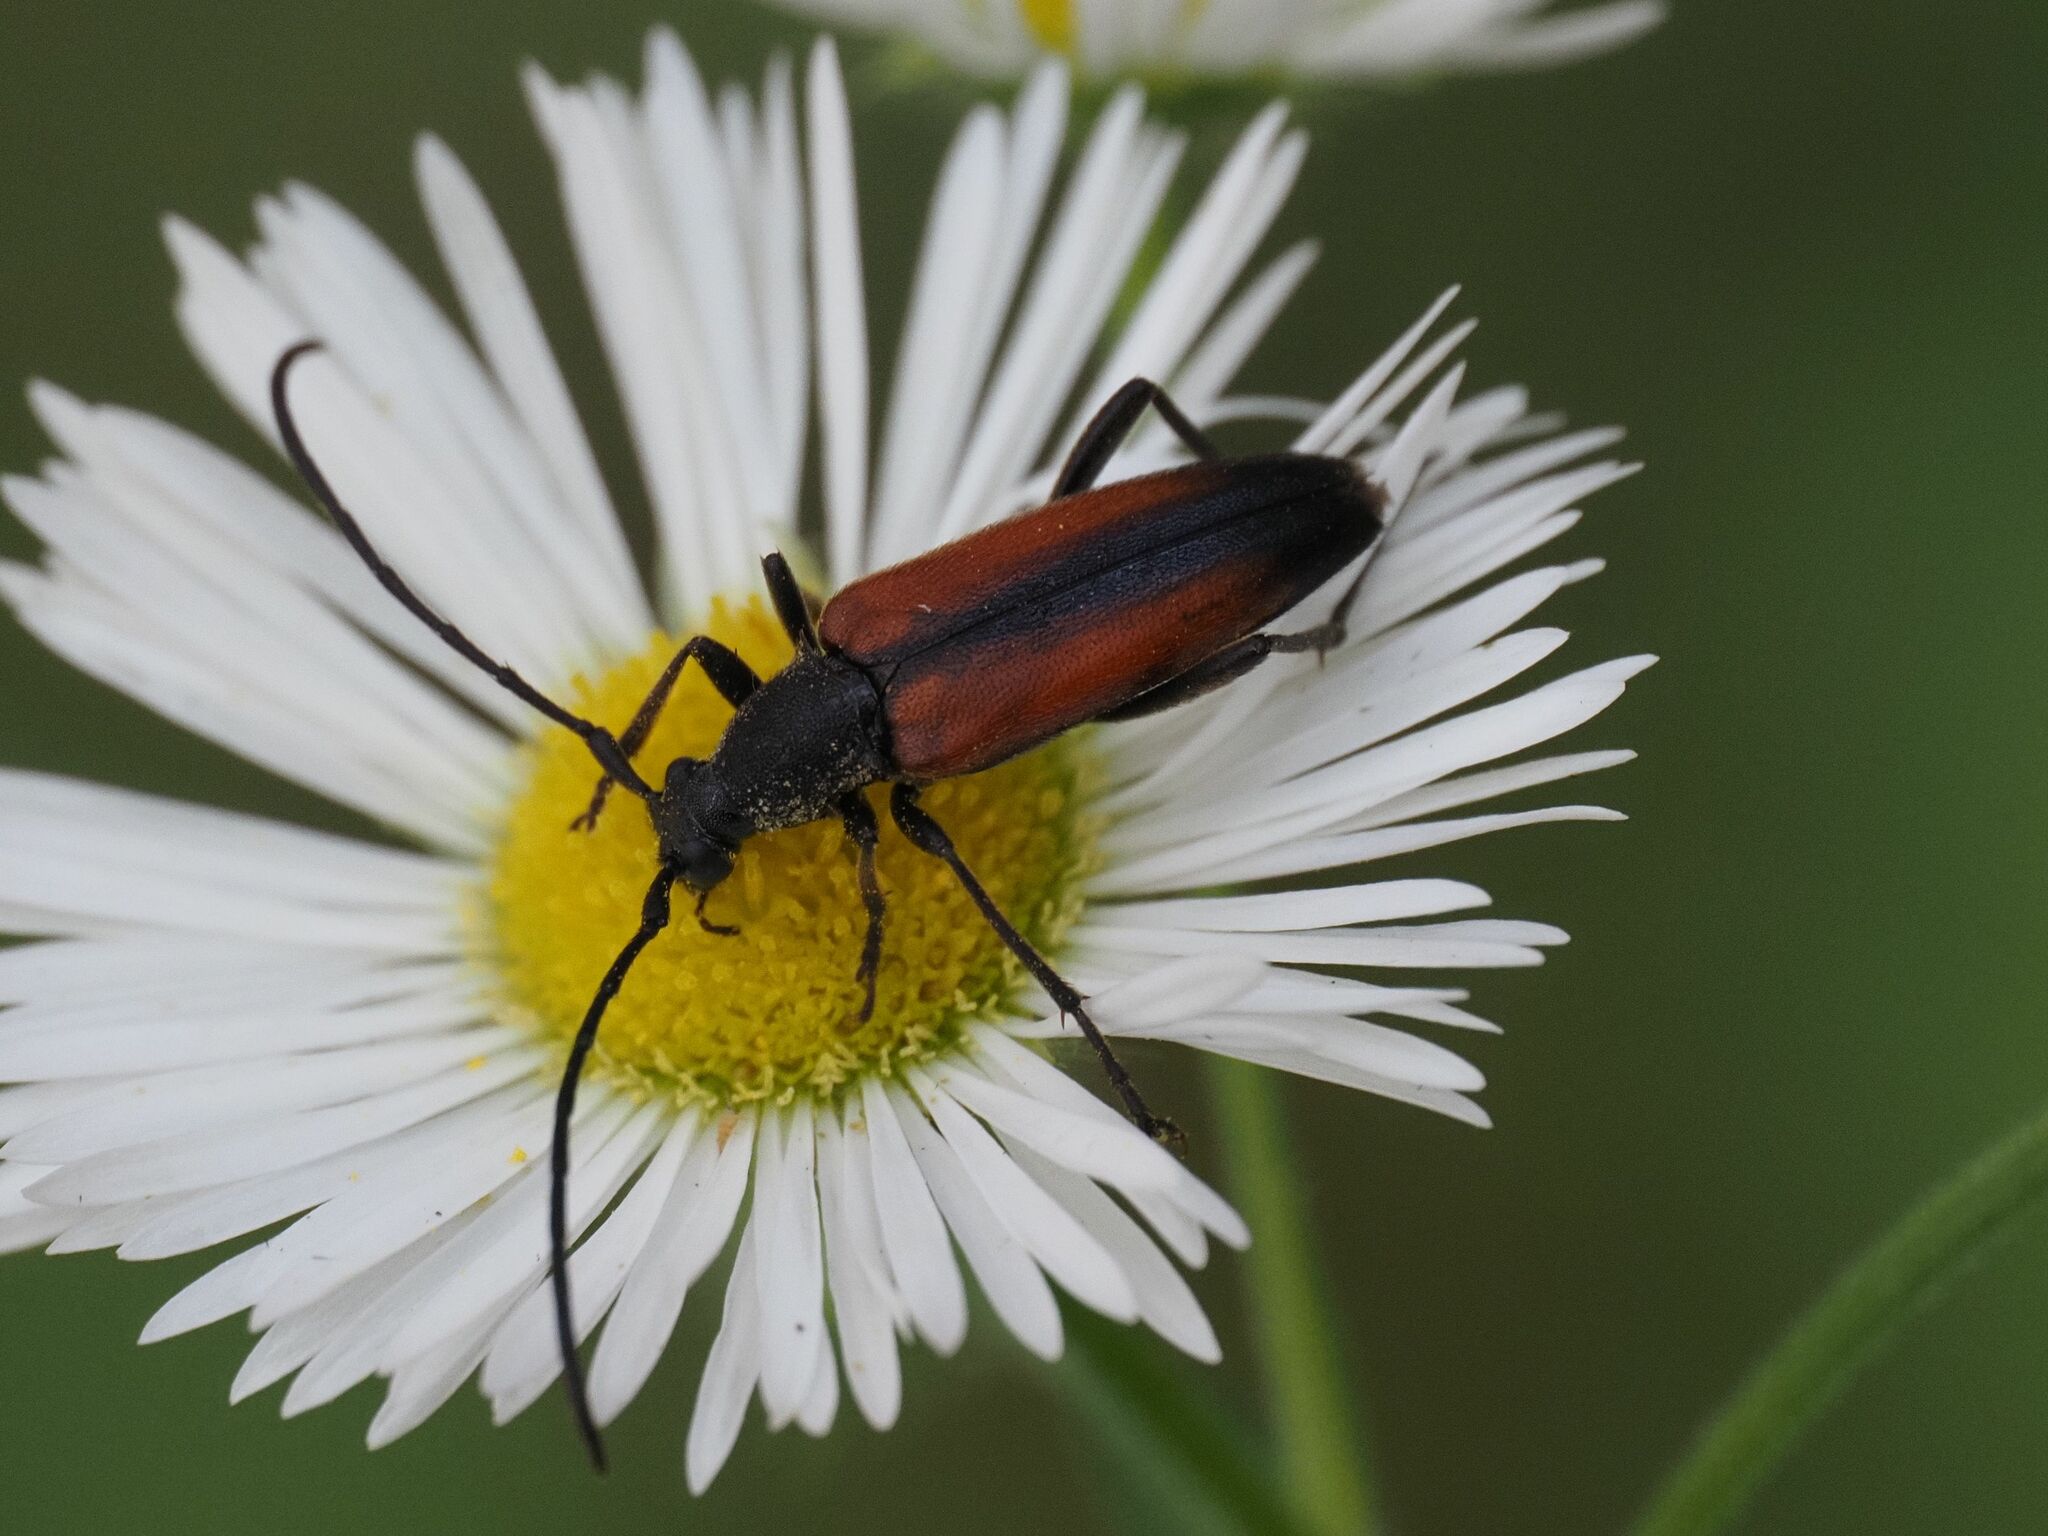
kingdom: Animalia
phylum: Arthropoda
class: Insecta
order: Coleoptera
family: Cerambycidae
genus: Stenurella
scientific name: Stenurella melanura
